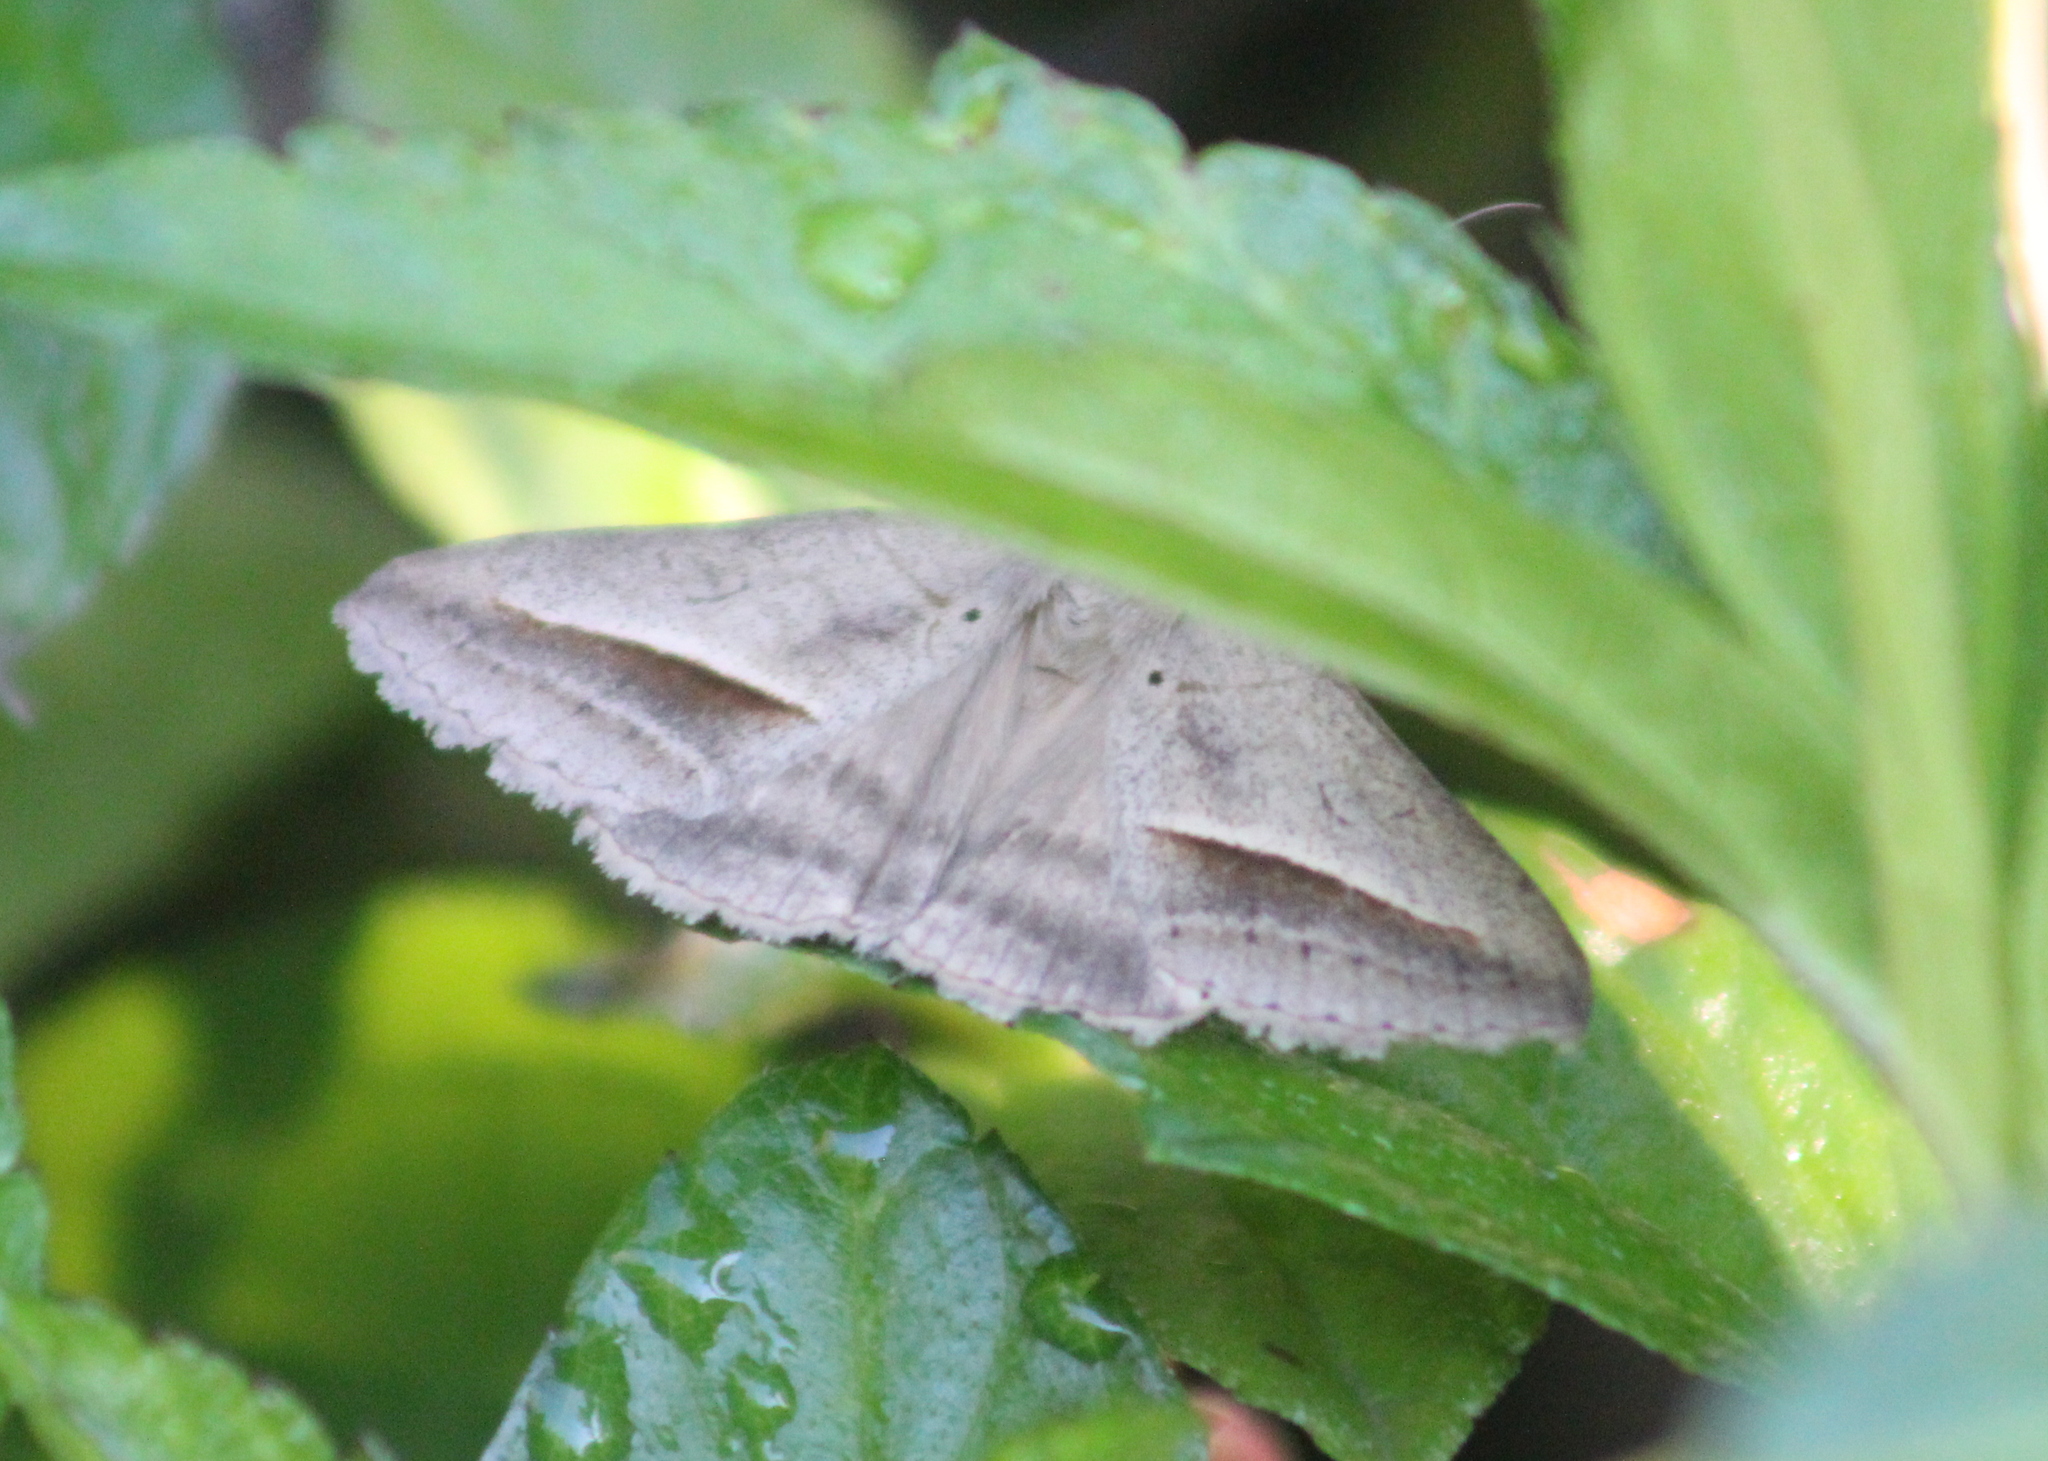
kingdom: Animalia
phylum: Arthropoda
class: Insecta
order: Lepidoptera
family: Erebidae
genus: Mocis
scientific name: Mocis frugalis
